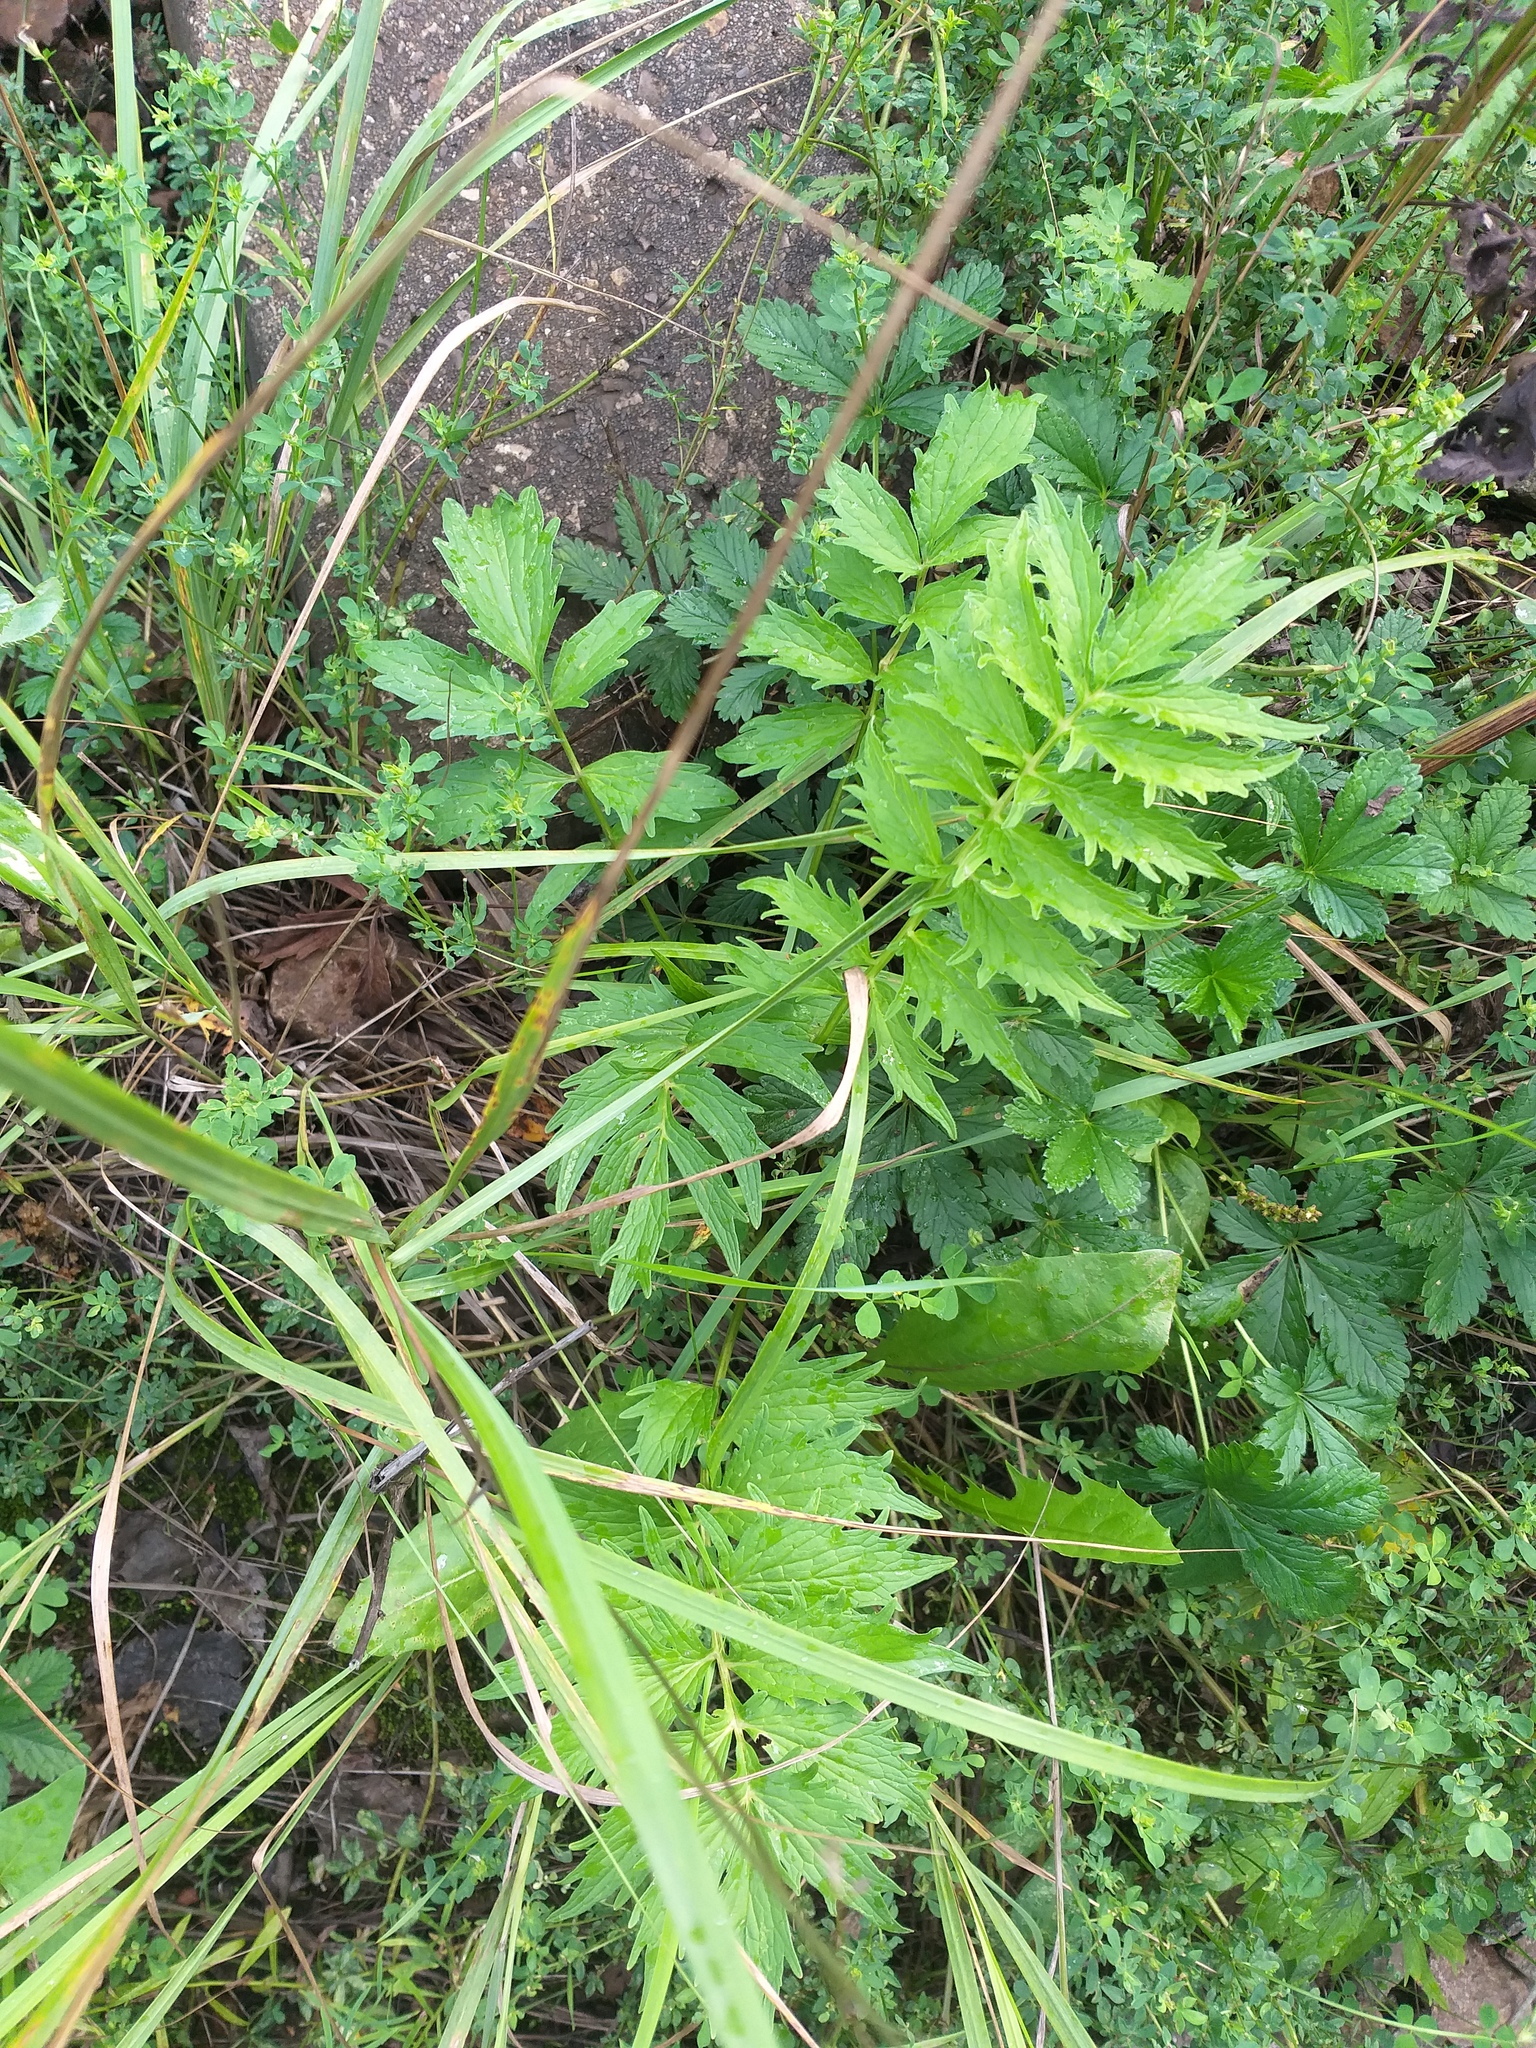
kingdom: Plantae
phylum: Tracheophyta
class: Magnoliopsida
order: Dipsacales
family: Caprifoliaceae
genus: Valeriana
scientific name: Valeriana officinalis
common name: Common valerian
